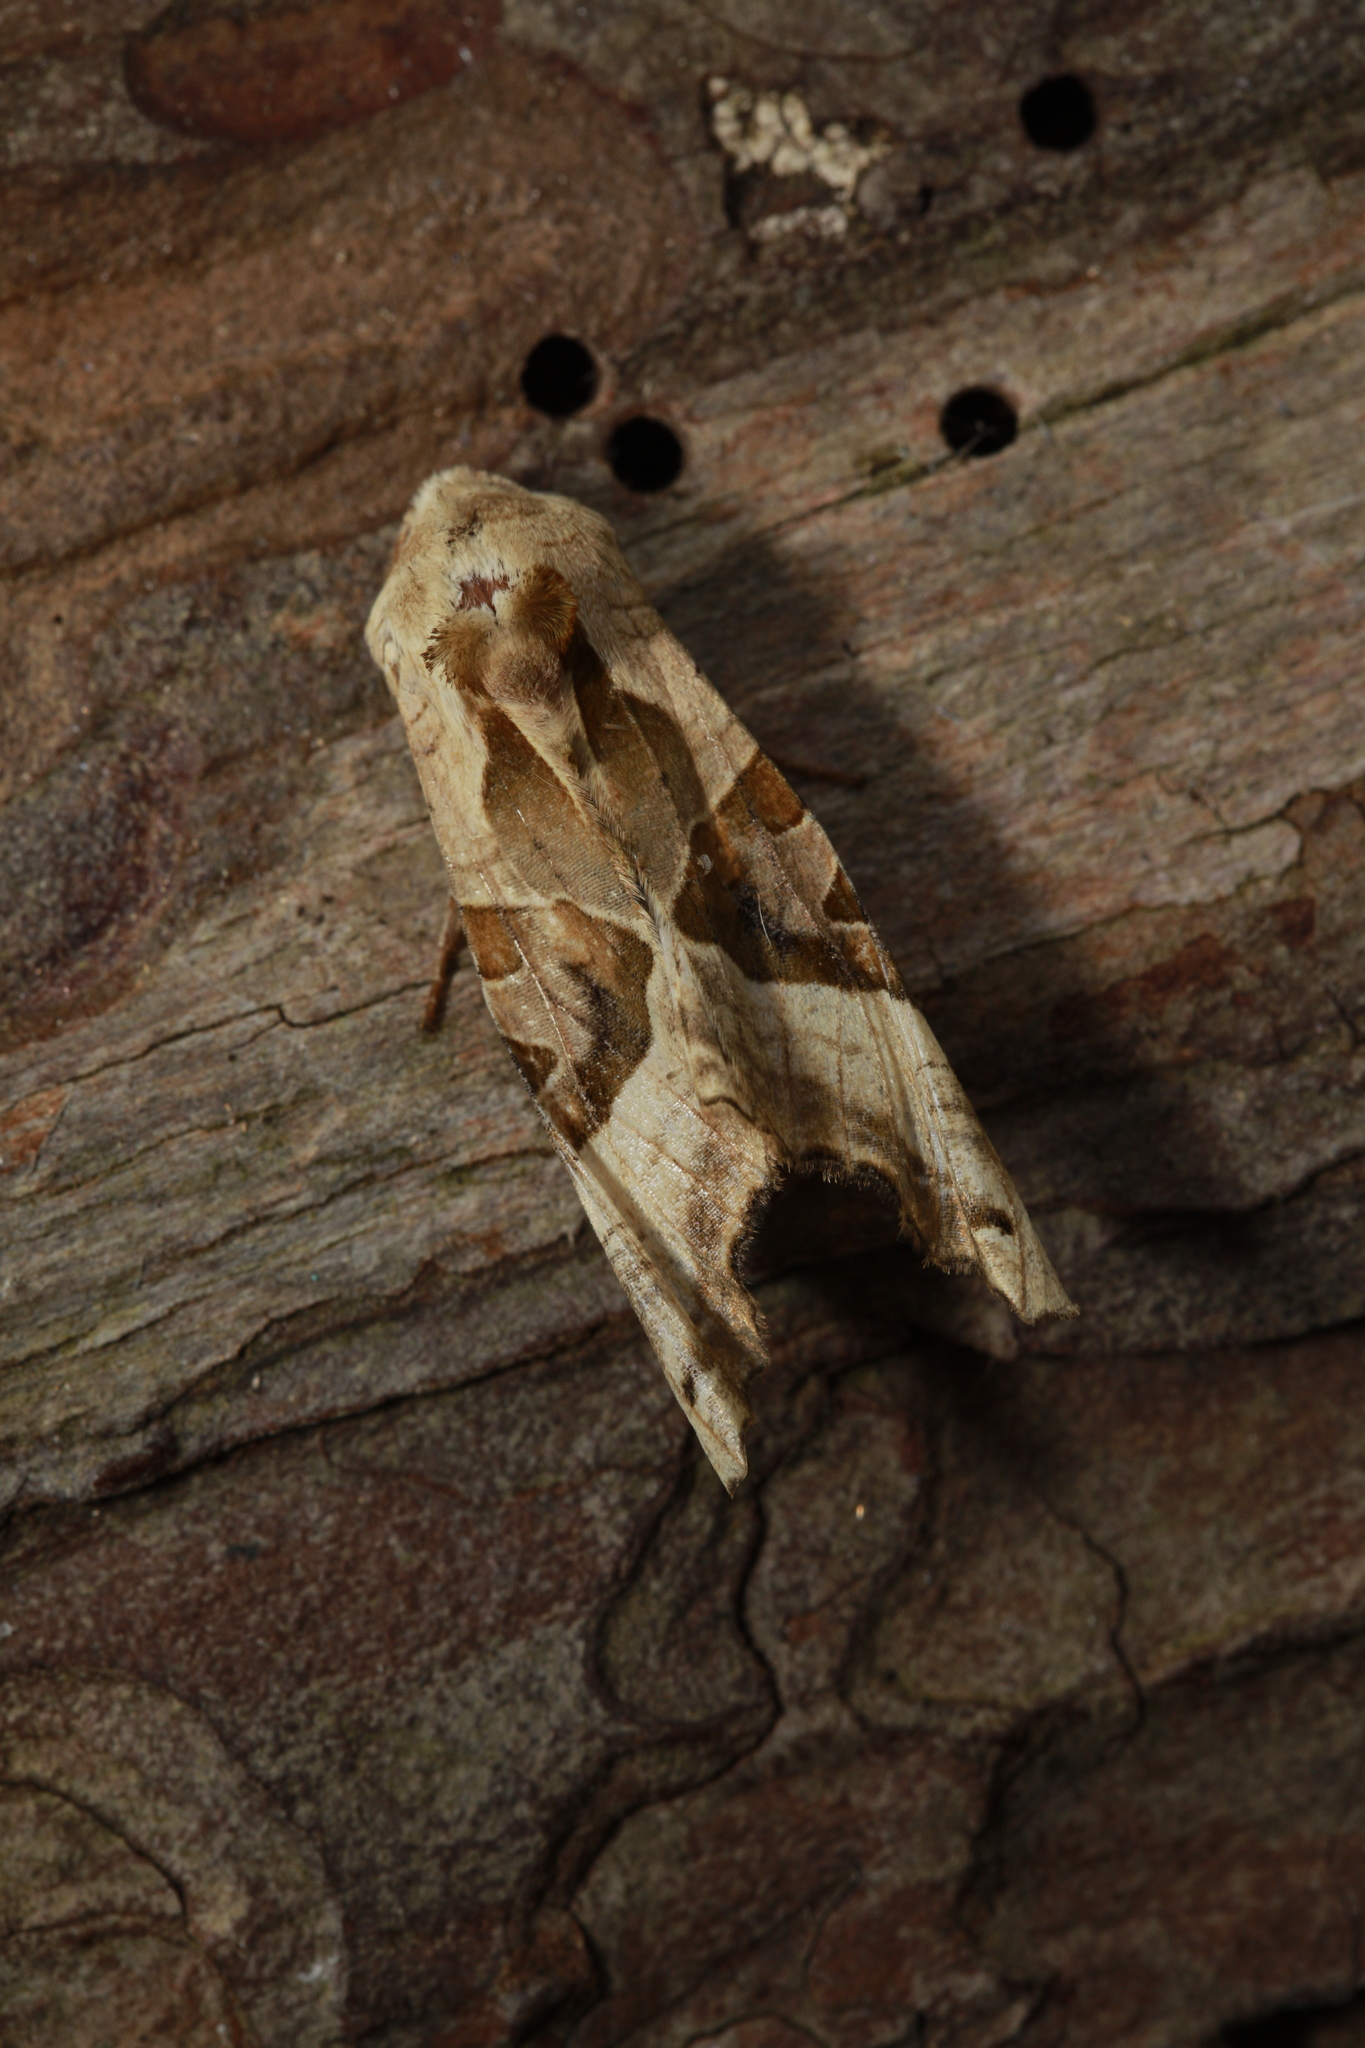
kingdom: Animalia
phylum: Arthropoda
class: Insecta
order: Lepidoptera
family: Noctuidae
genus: Phlogophora
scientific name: Phlogophora meticulosa
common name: Angle shades
